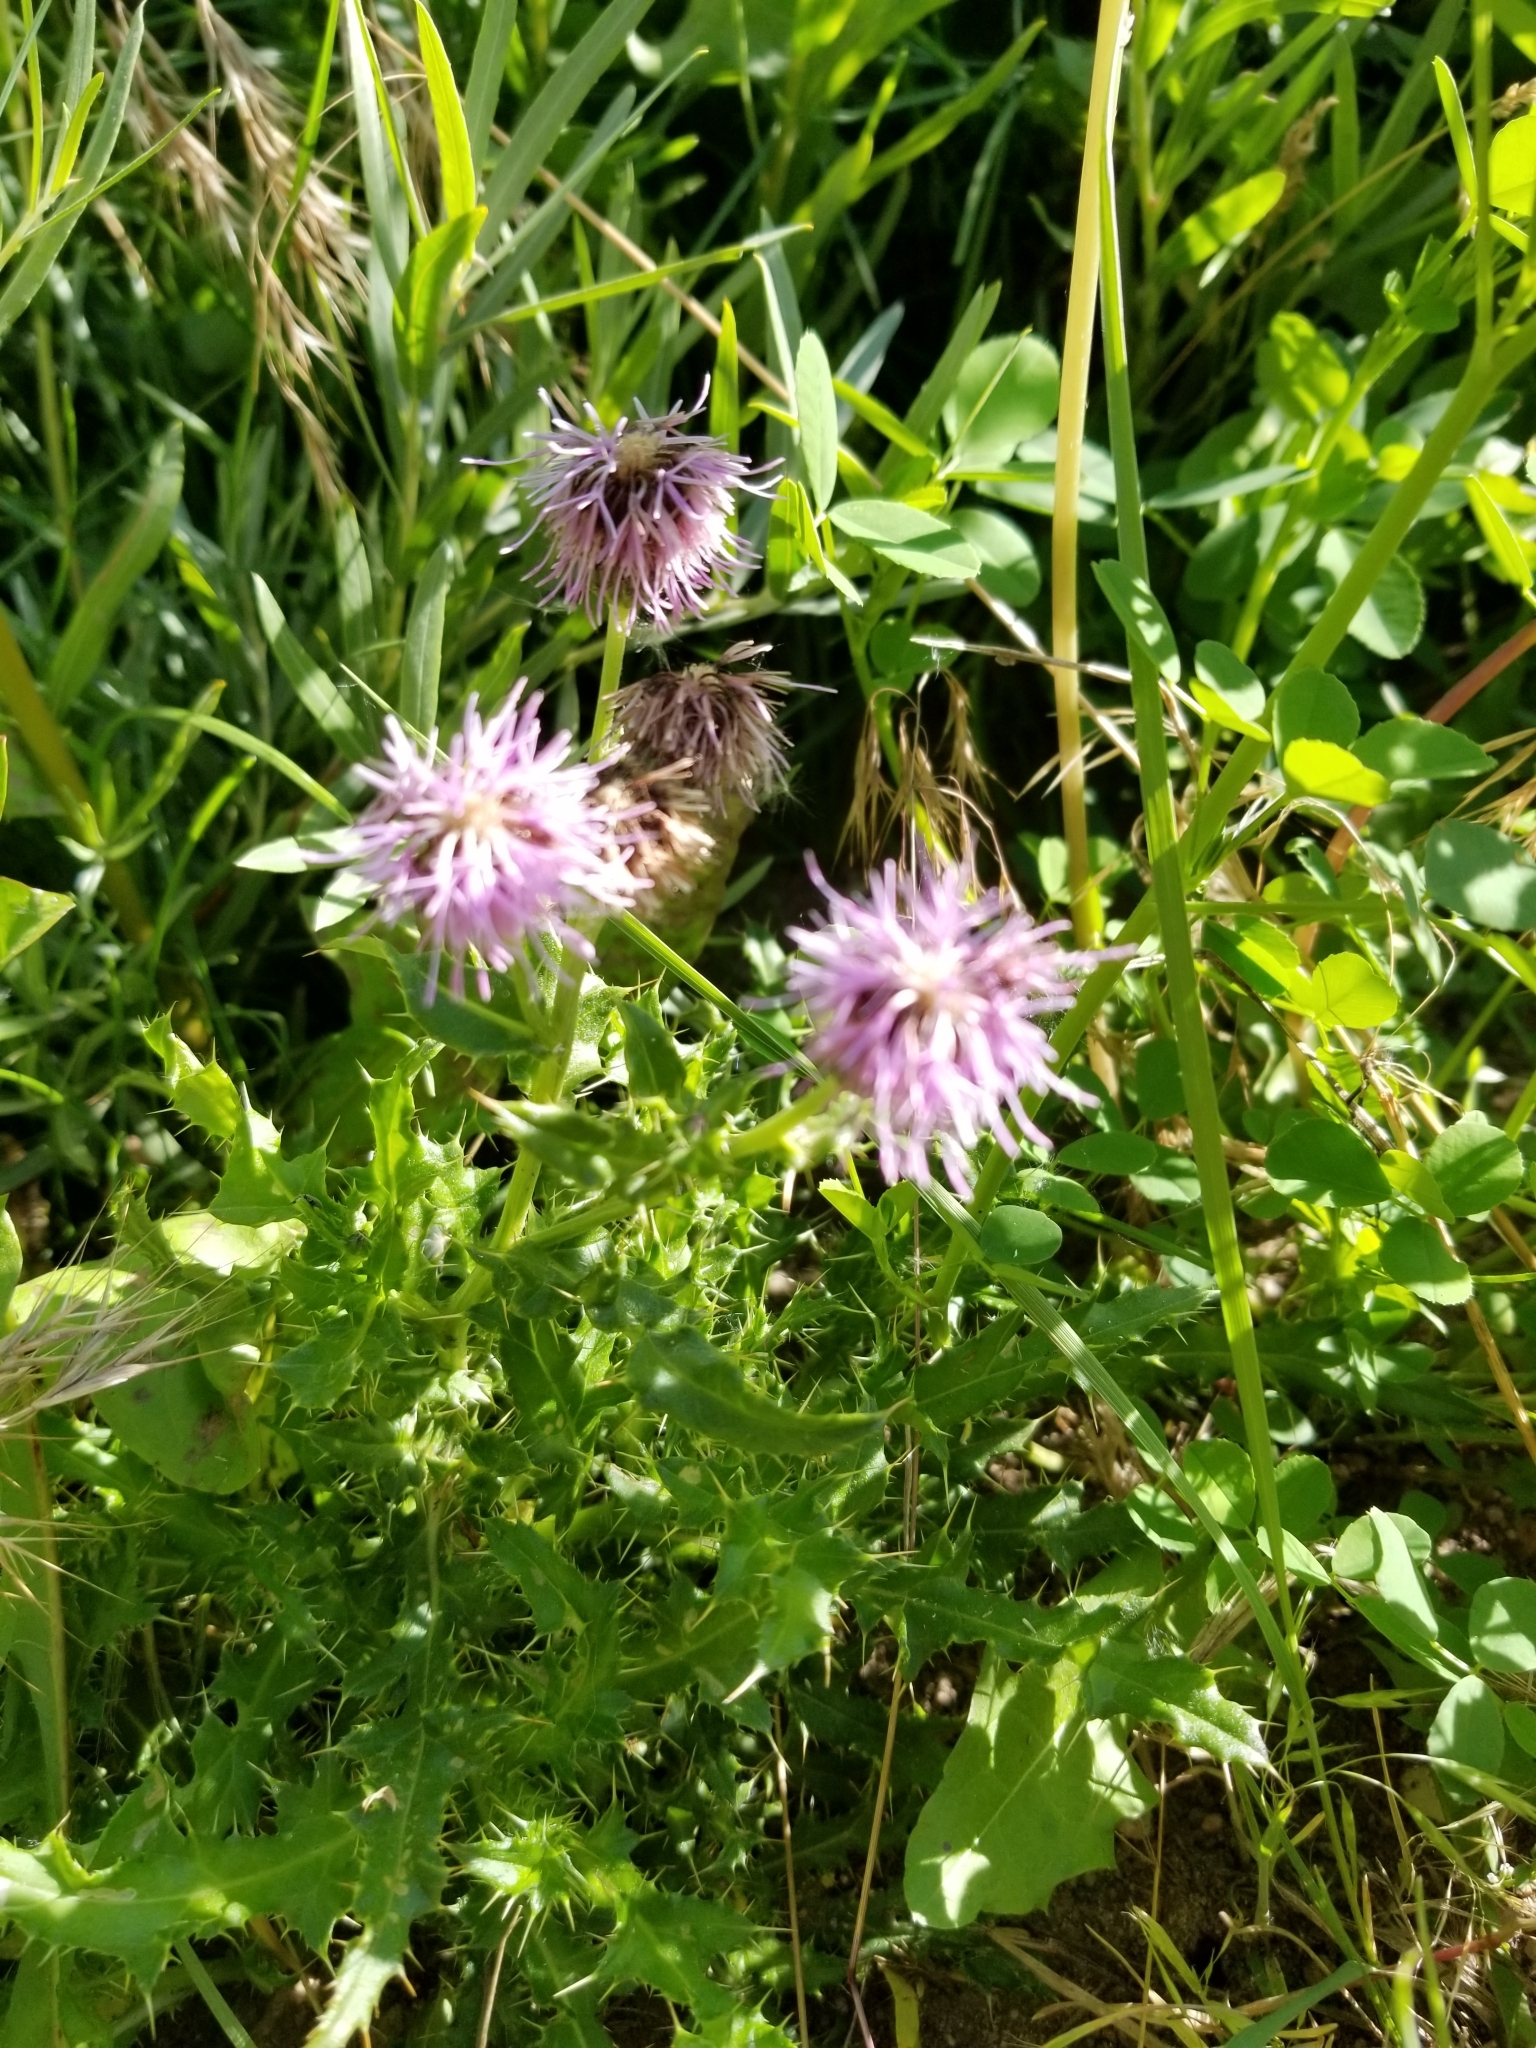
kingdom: Plantae
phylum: Tracheophyta
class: Magnoliopsida
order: Asterales
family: Asteraceae
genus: Cirsium
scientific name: Cirsium arvense
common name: Creeping thistle
